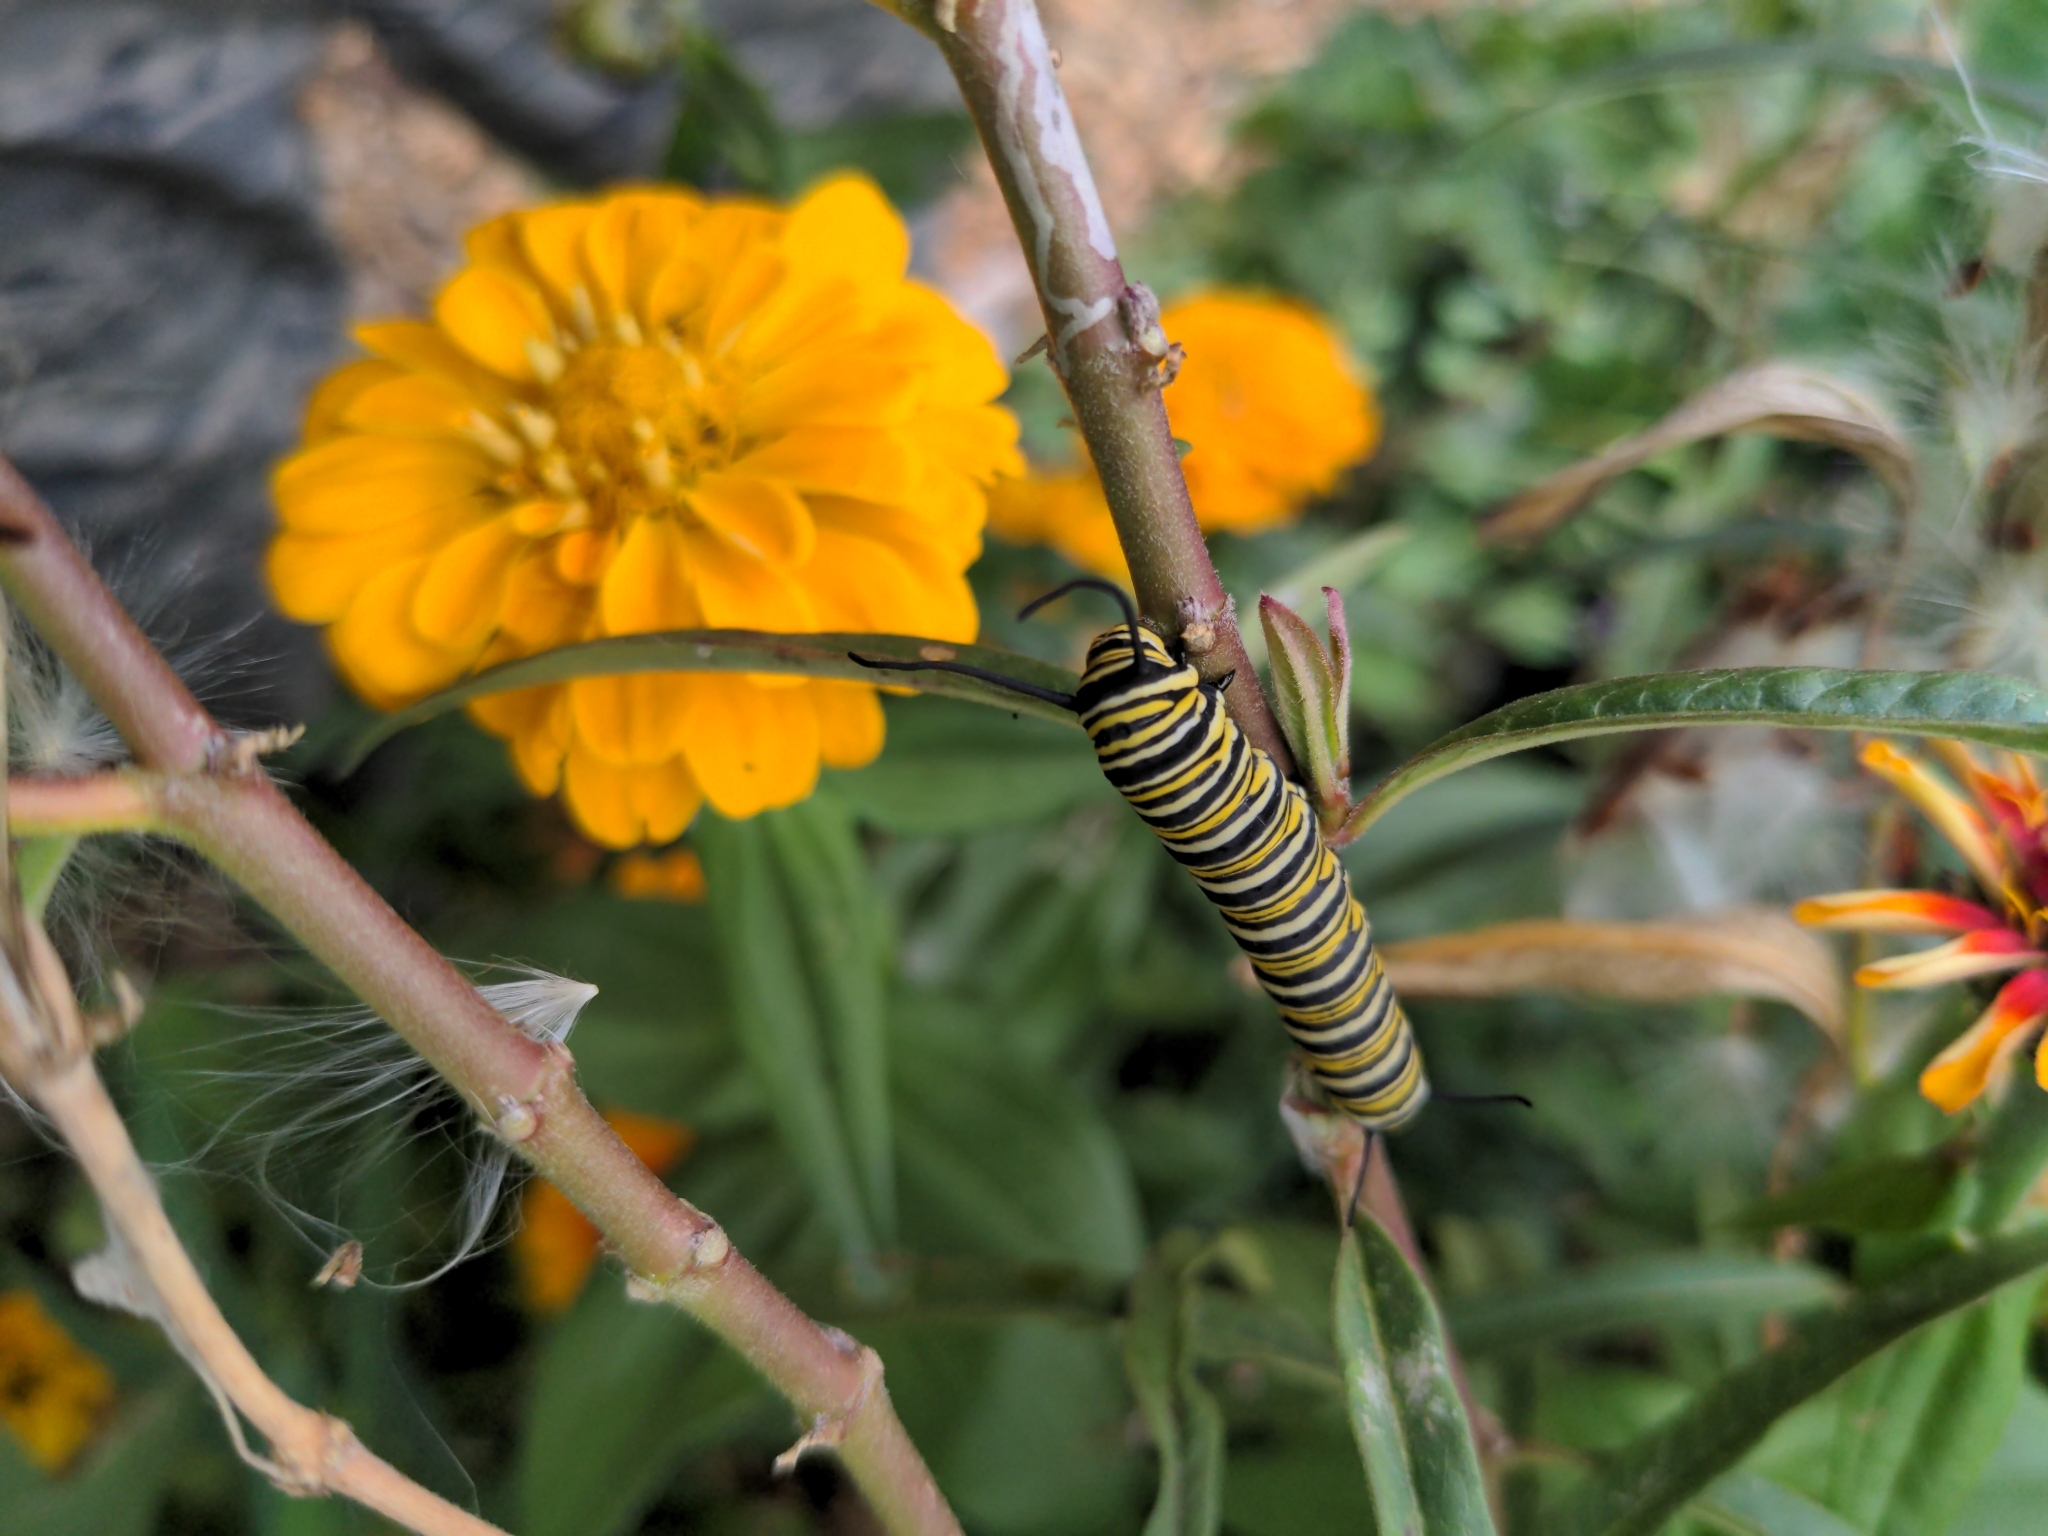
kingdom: Animalia
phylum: Arthropoda
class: Insecta
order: Lepidoptera
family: Nymphalidae
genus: Danaus
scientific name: Danaus plexippus
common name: Monarch
